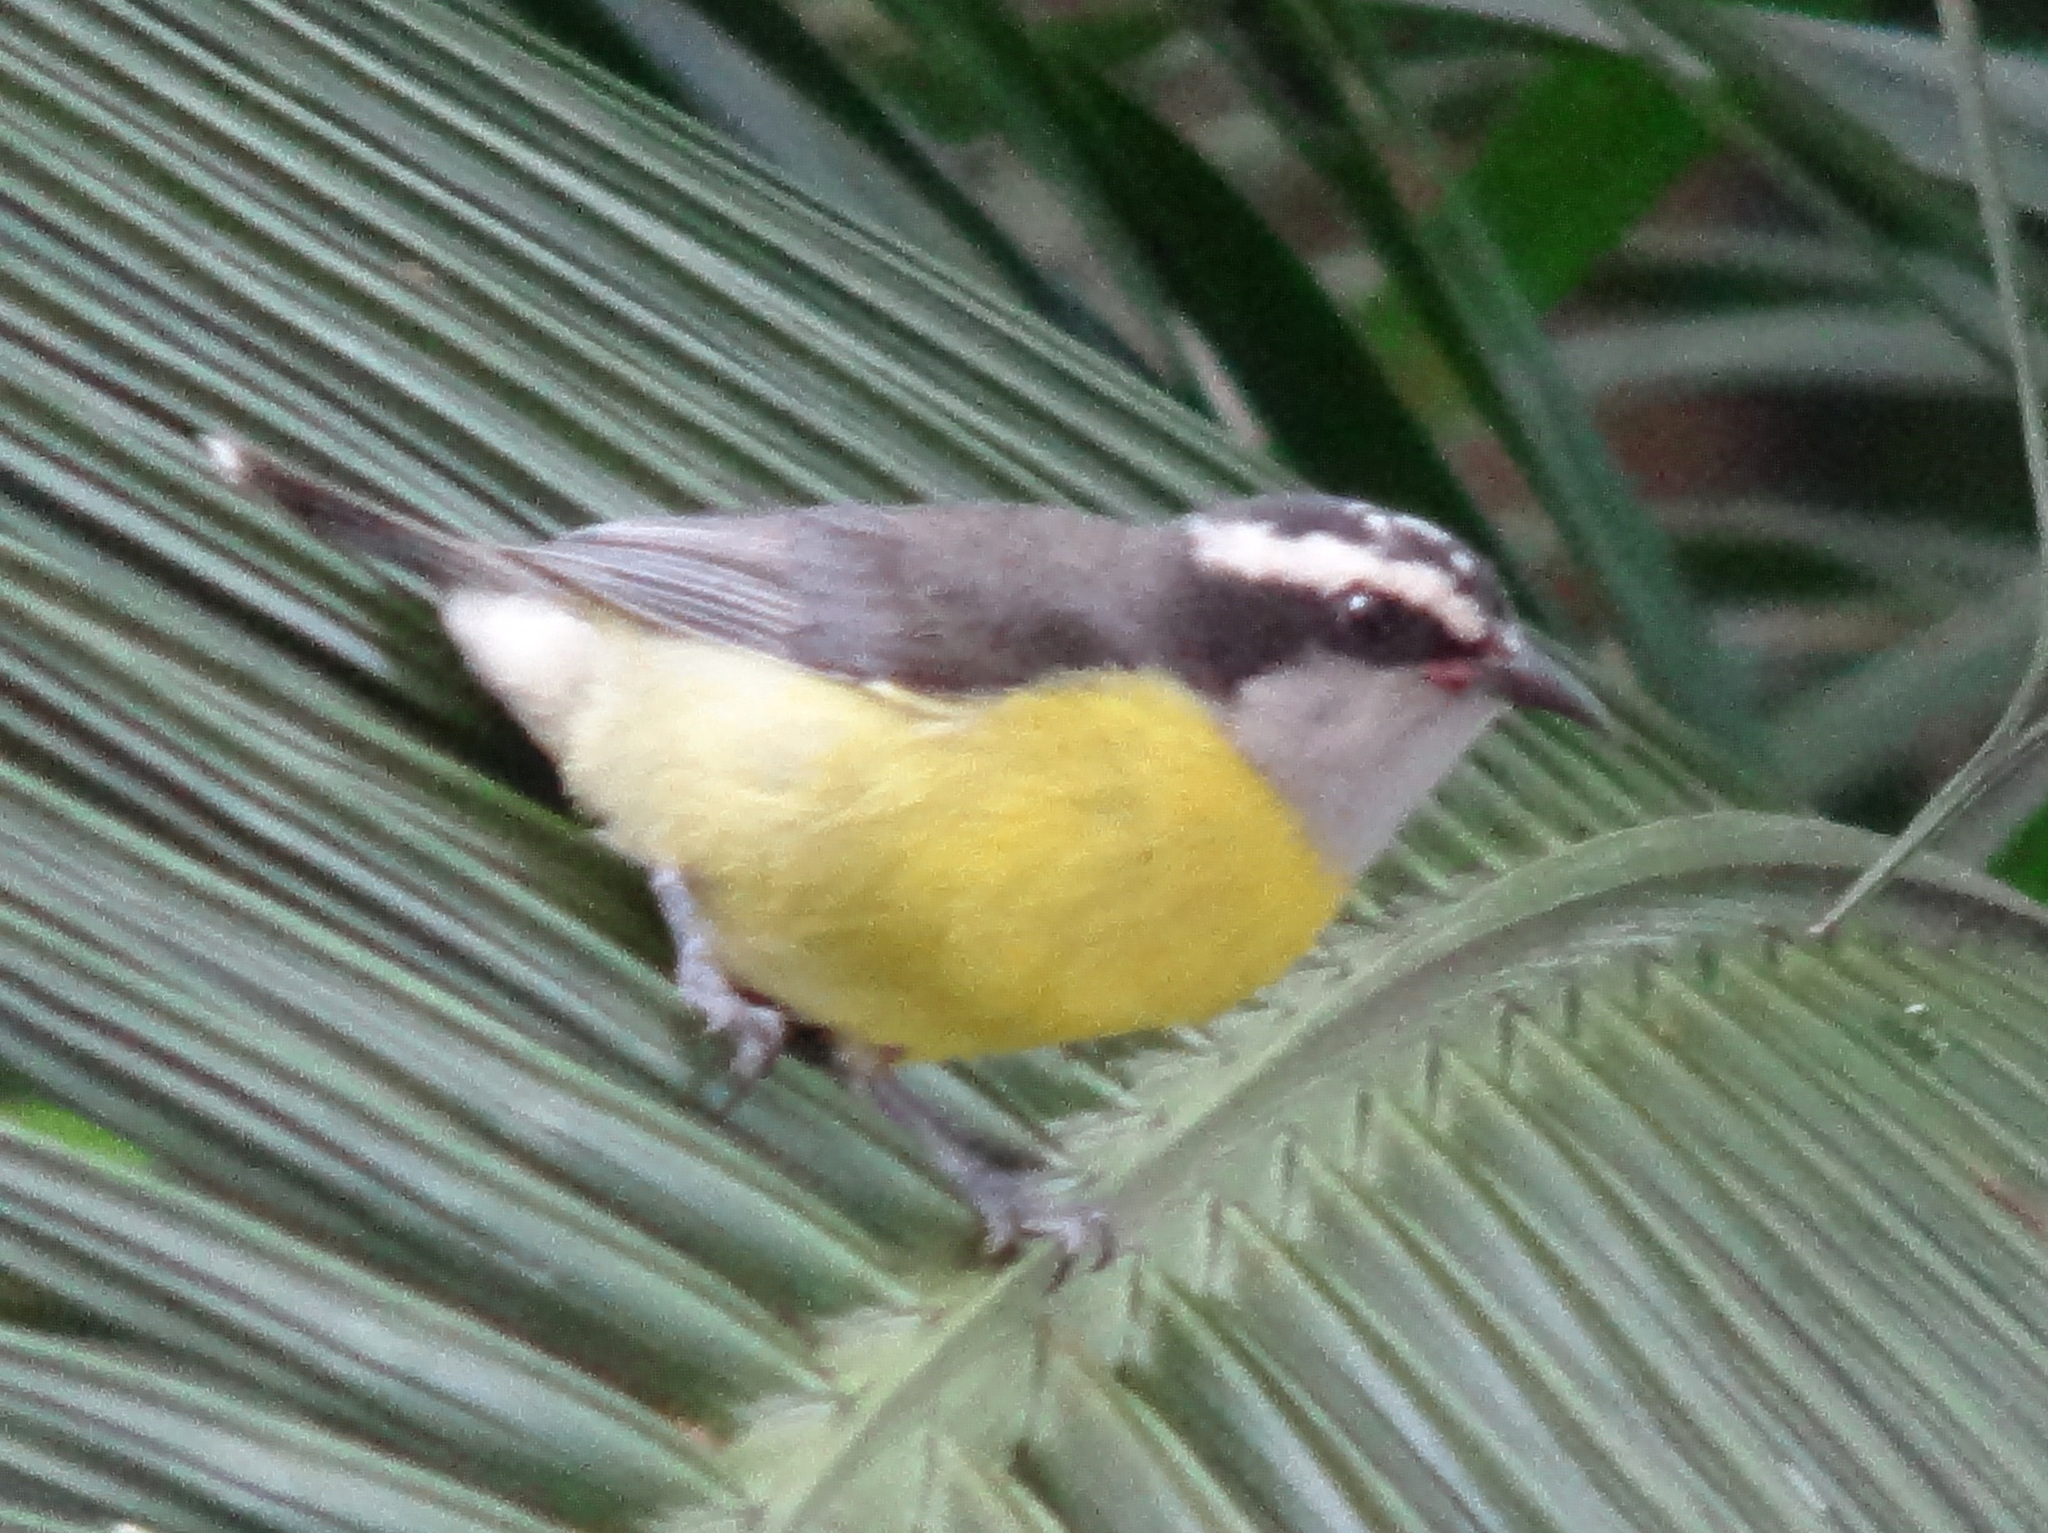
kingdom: Animalia
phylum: Chordata
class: Aves
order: Passeriformes
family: Thraupidae
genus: Coereba
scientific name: Coereba flaveola
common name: Bananaquit
